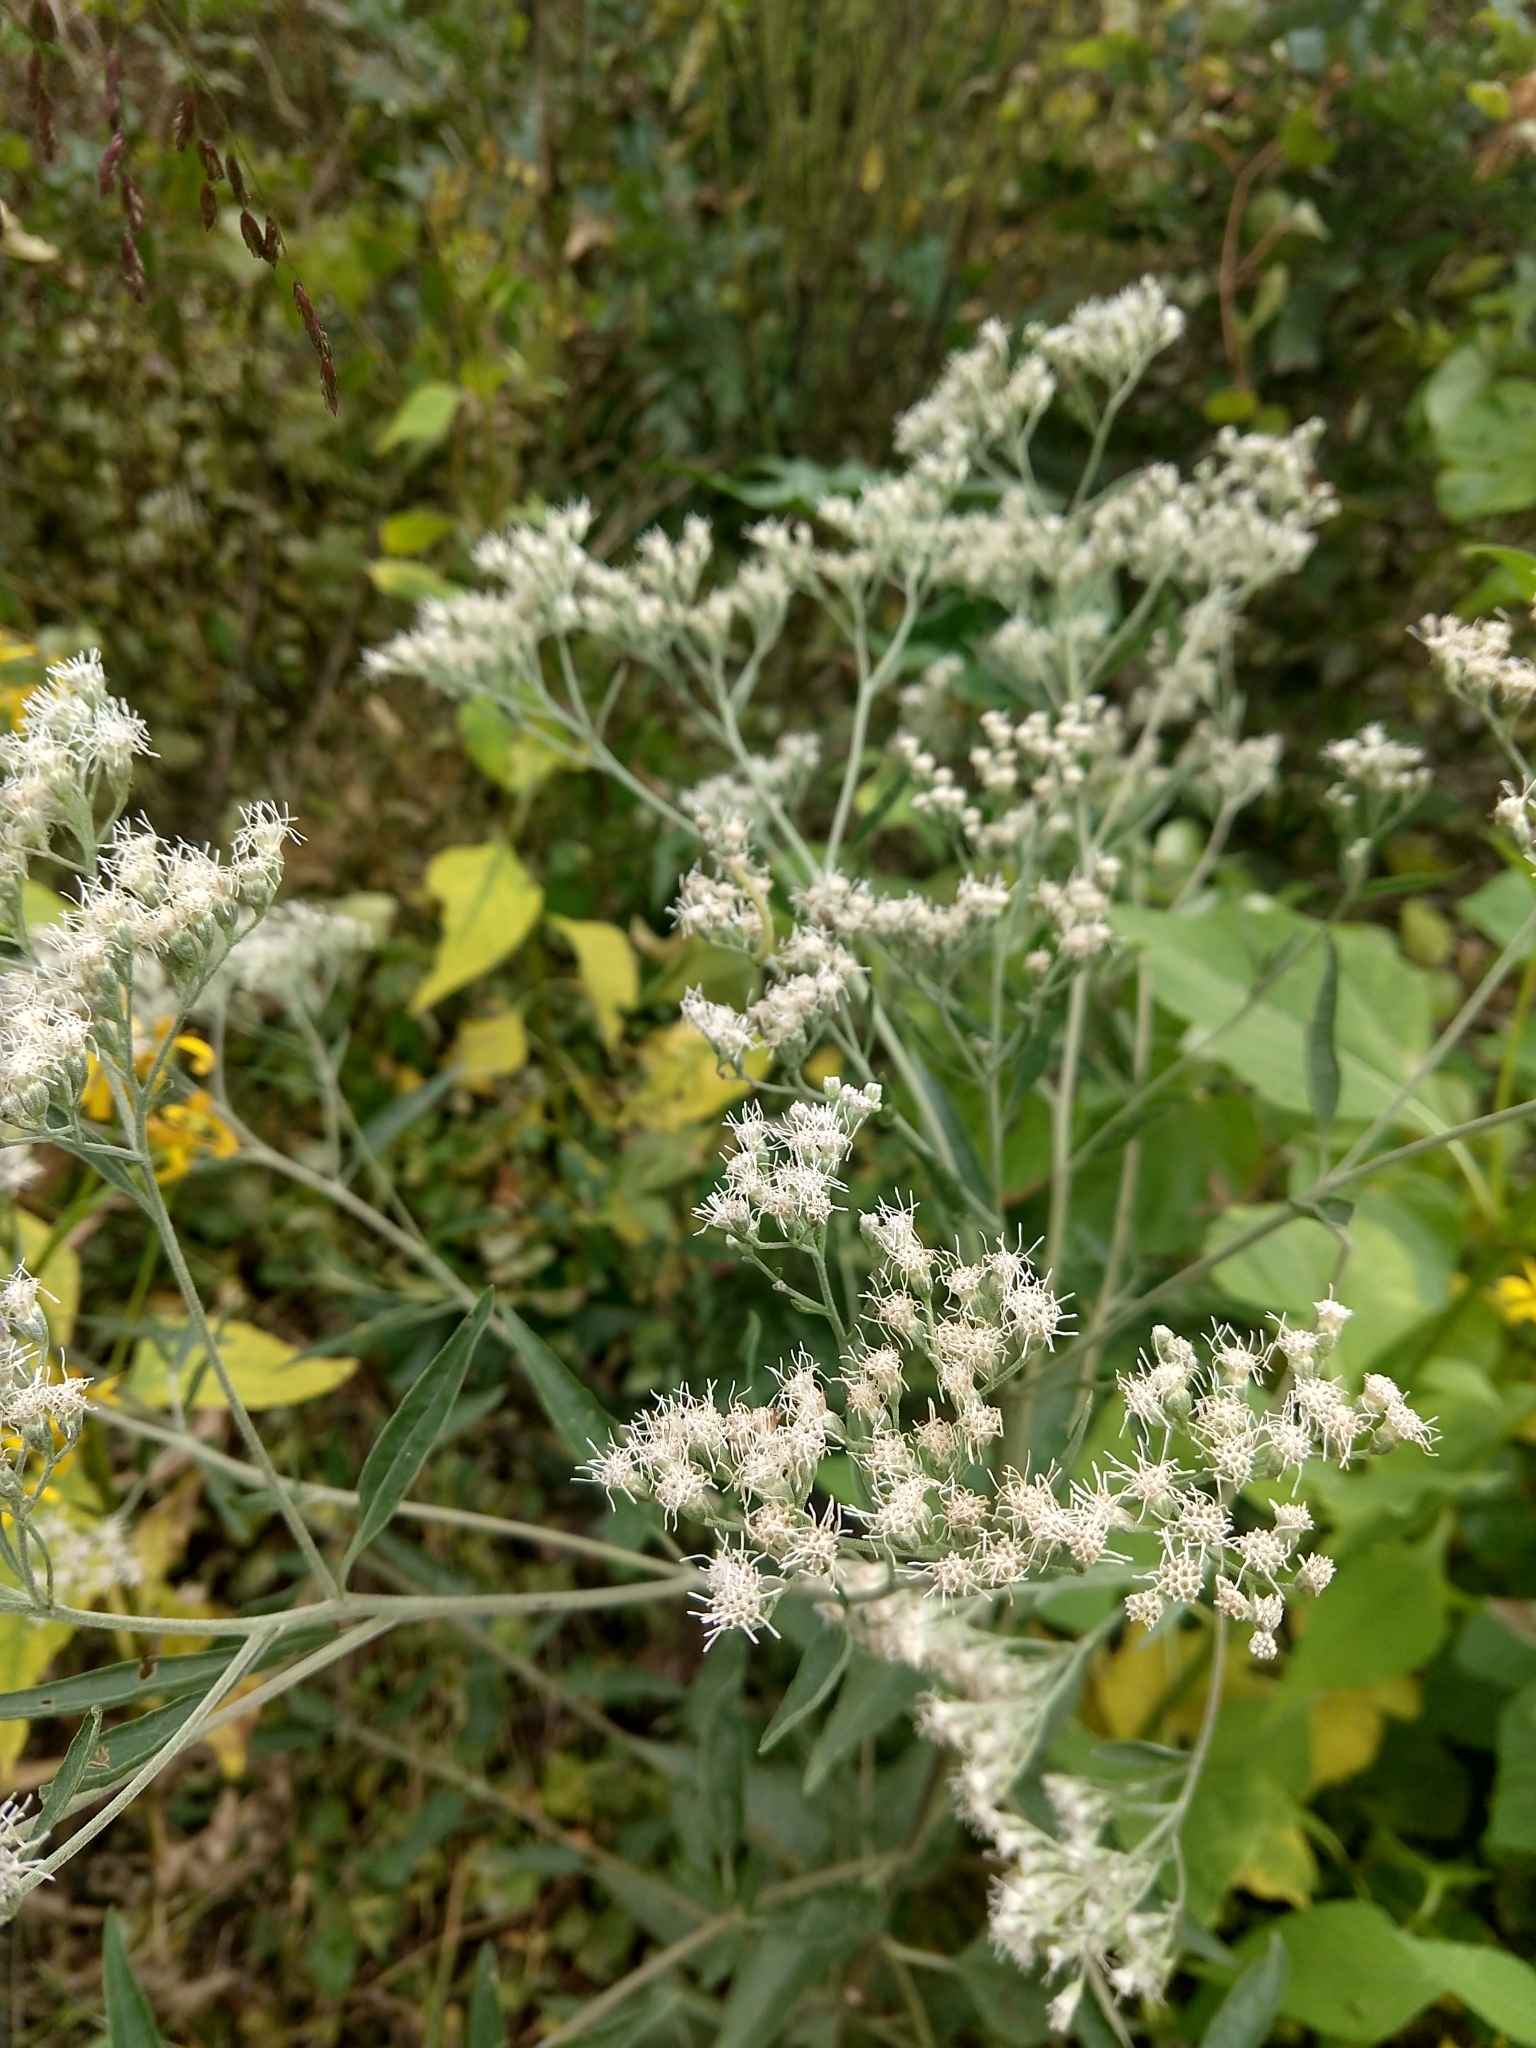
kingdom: Plantae
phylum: Tracheophyta
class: Magnoliopsida
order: Asterales
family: Asteraceae
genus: Eupatorium
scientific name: Eupatorium serotinum
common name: Late boneset
